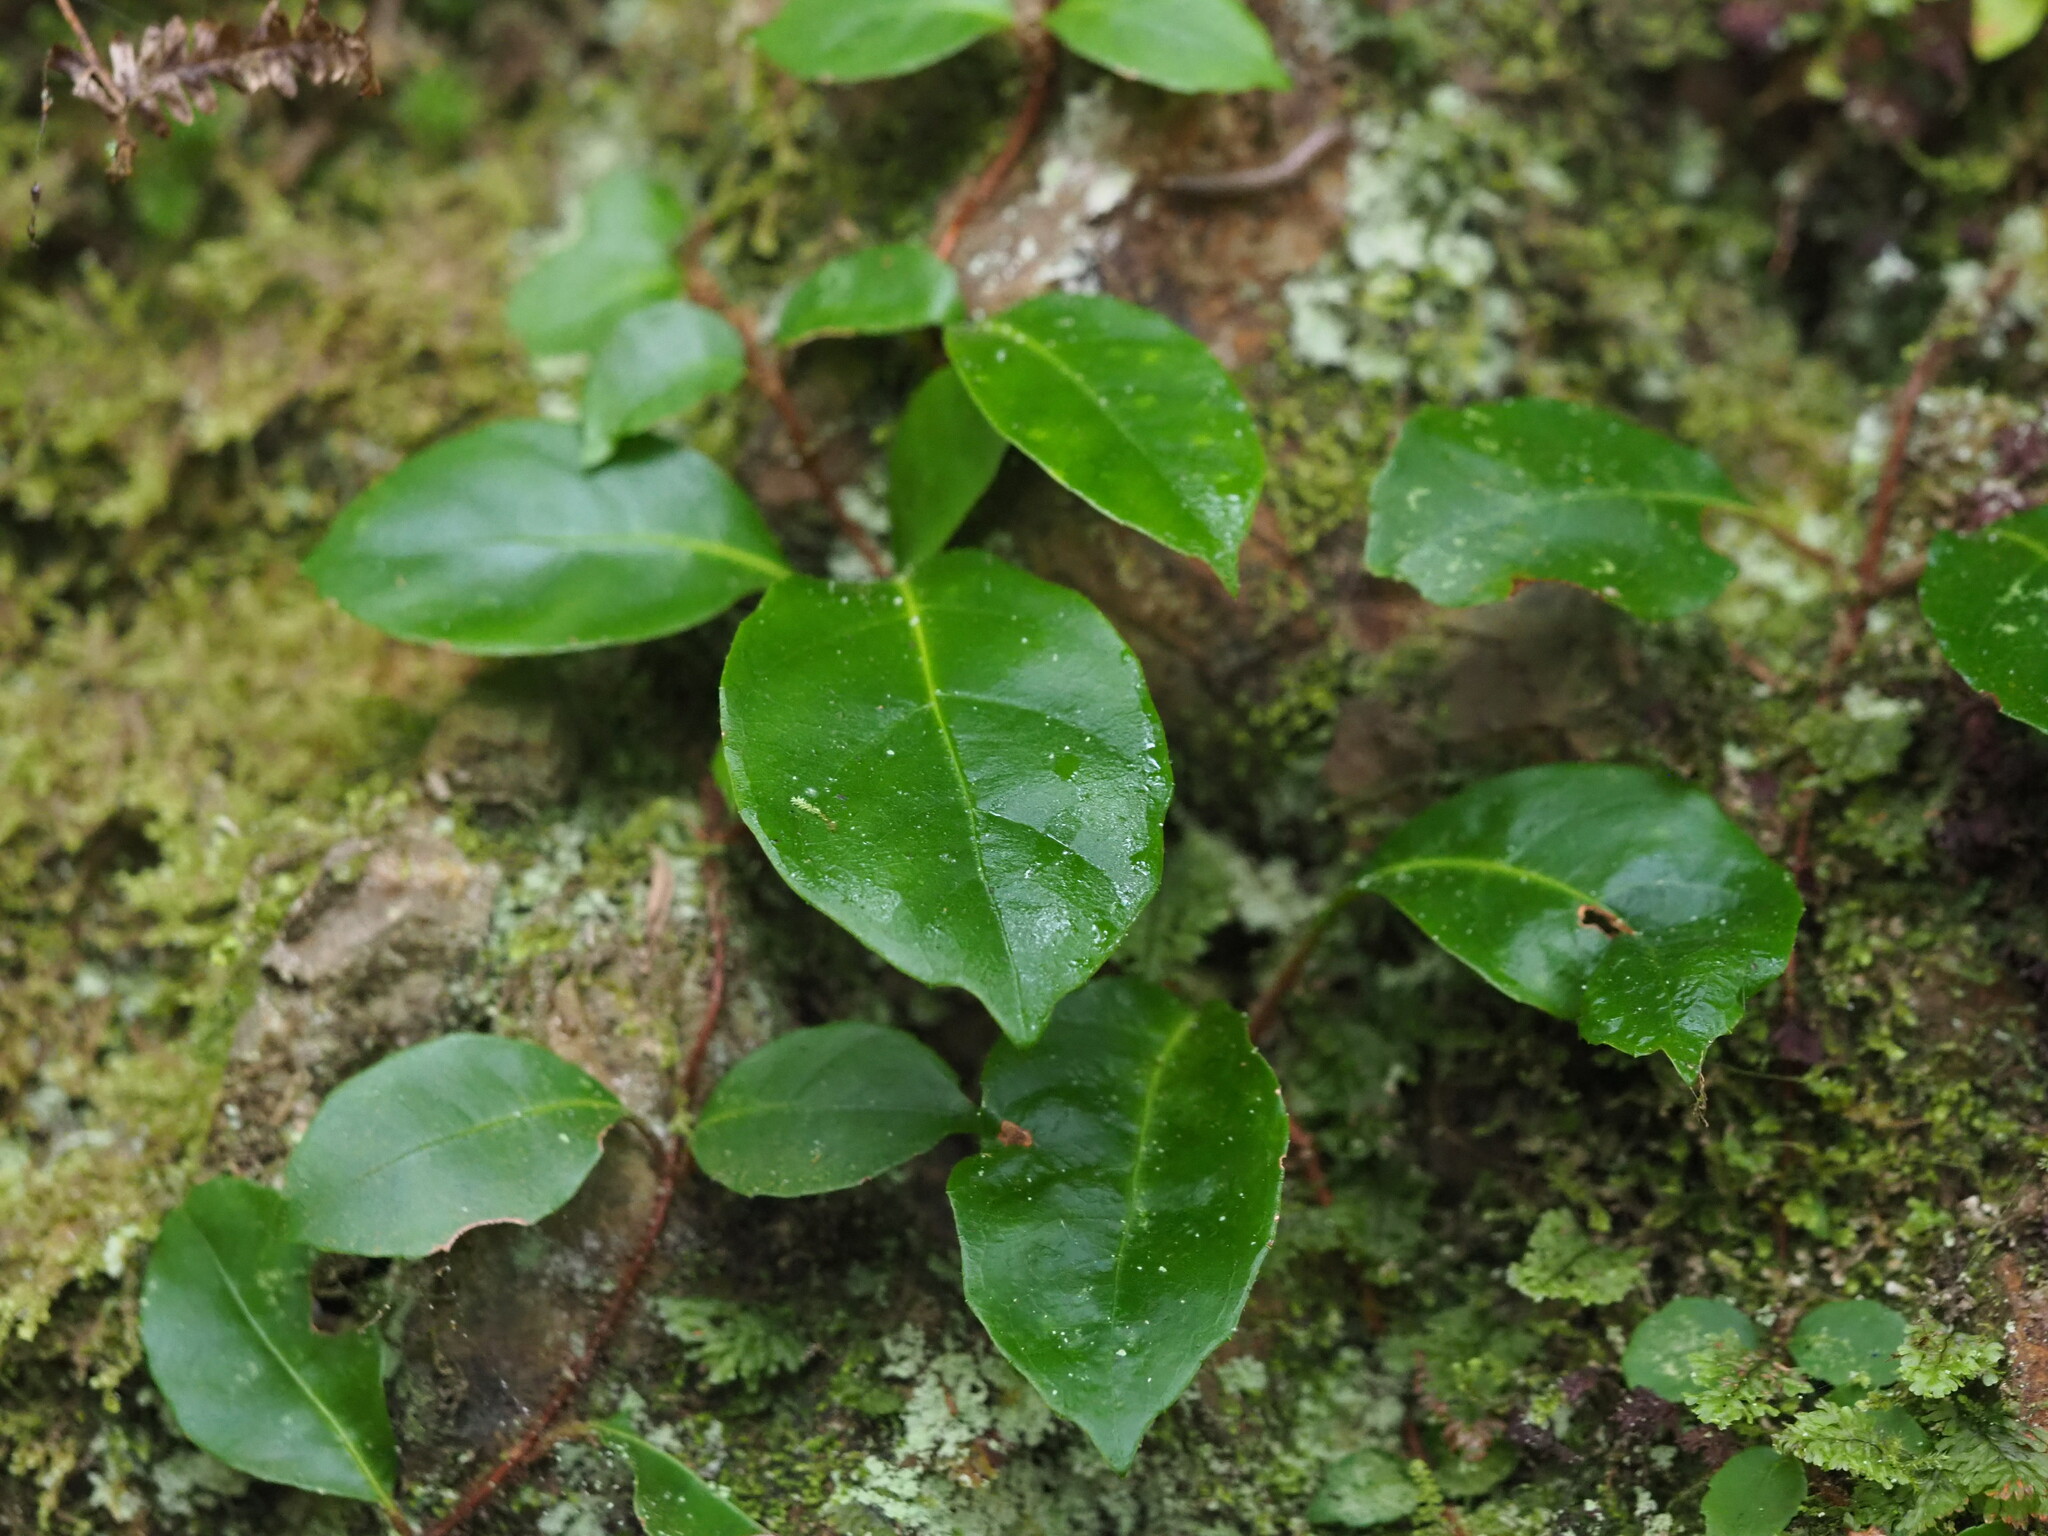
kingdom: Plantae
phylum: Tracheophyta
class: Magnoliopsida
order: Cornales
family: Hydrangeaceae
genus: Hydrangea
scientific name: Hydrangea integrifolia
